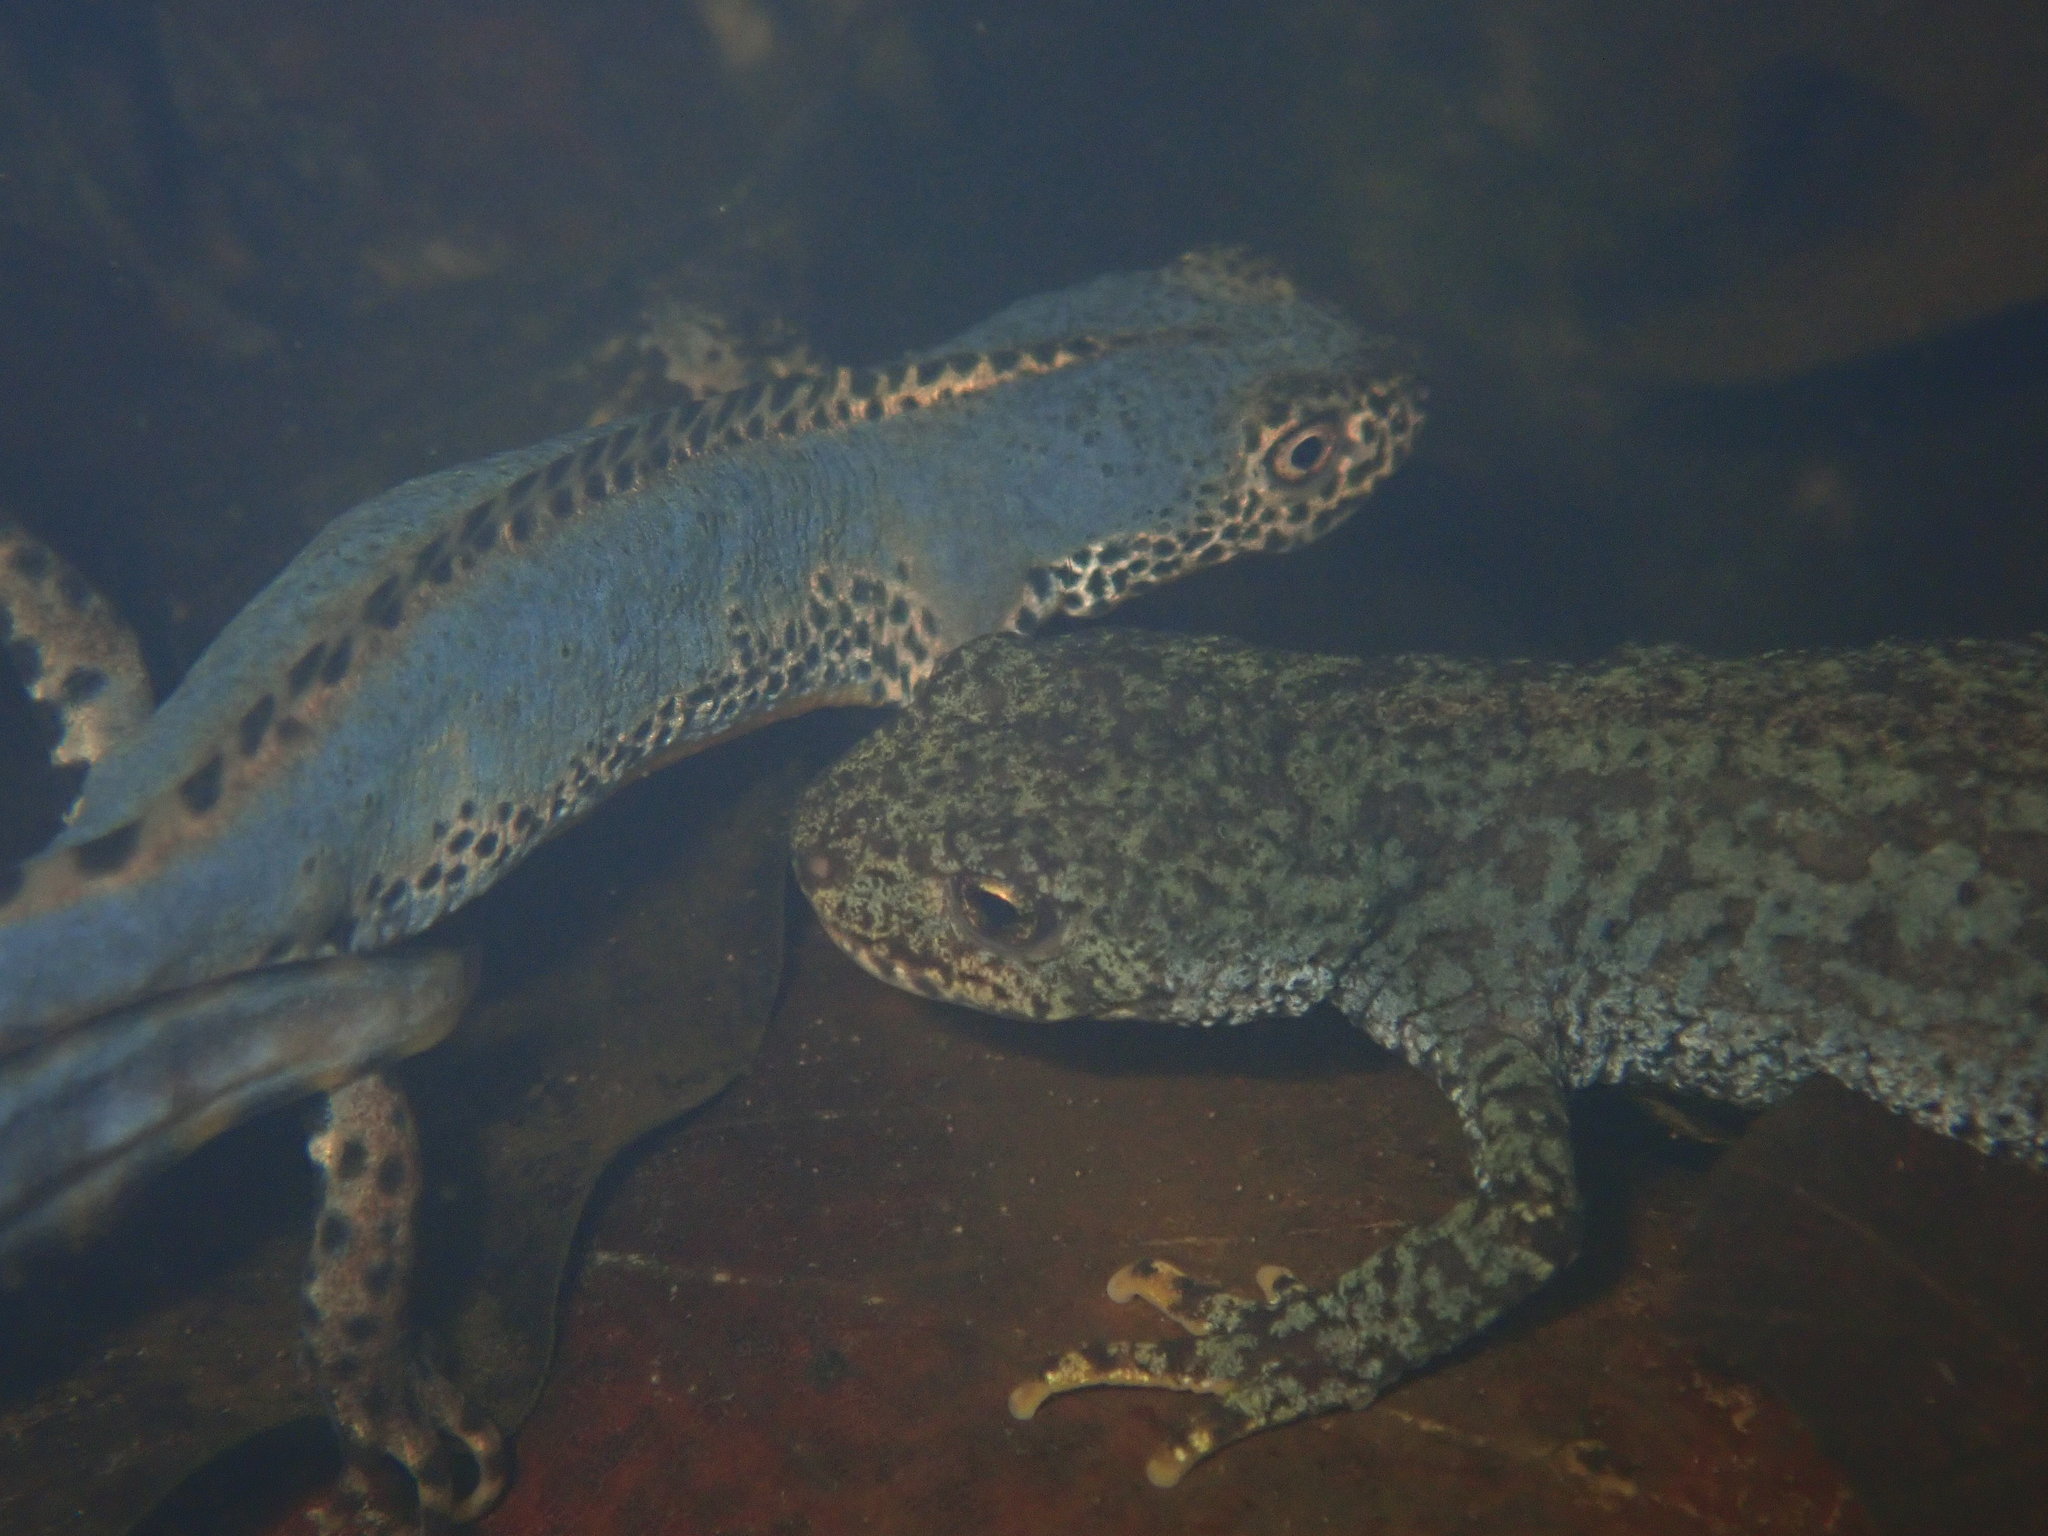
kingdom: Animalia
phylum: Chordata
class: Amphibia
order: Caudata
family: Salamandridae
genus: Ichthyosaura
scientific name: Ichthyosaura alpestris
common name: Alpine newt
